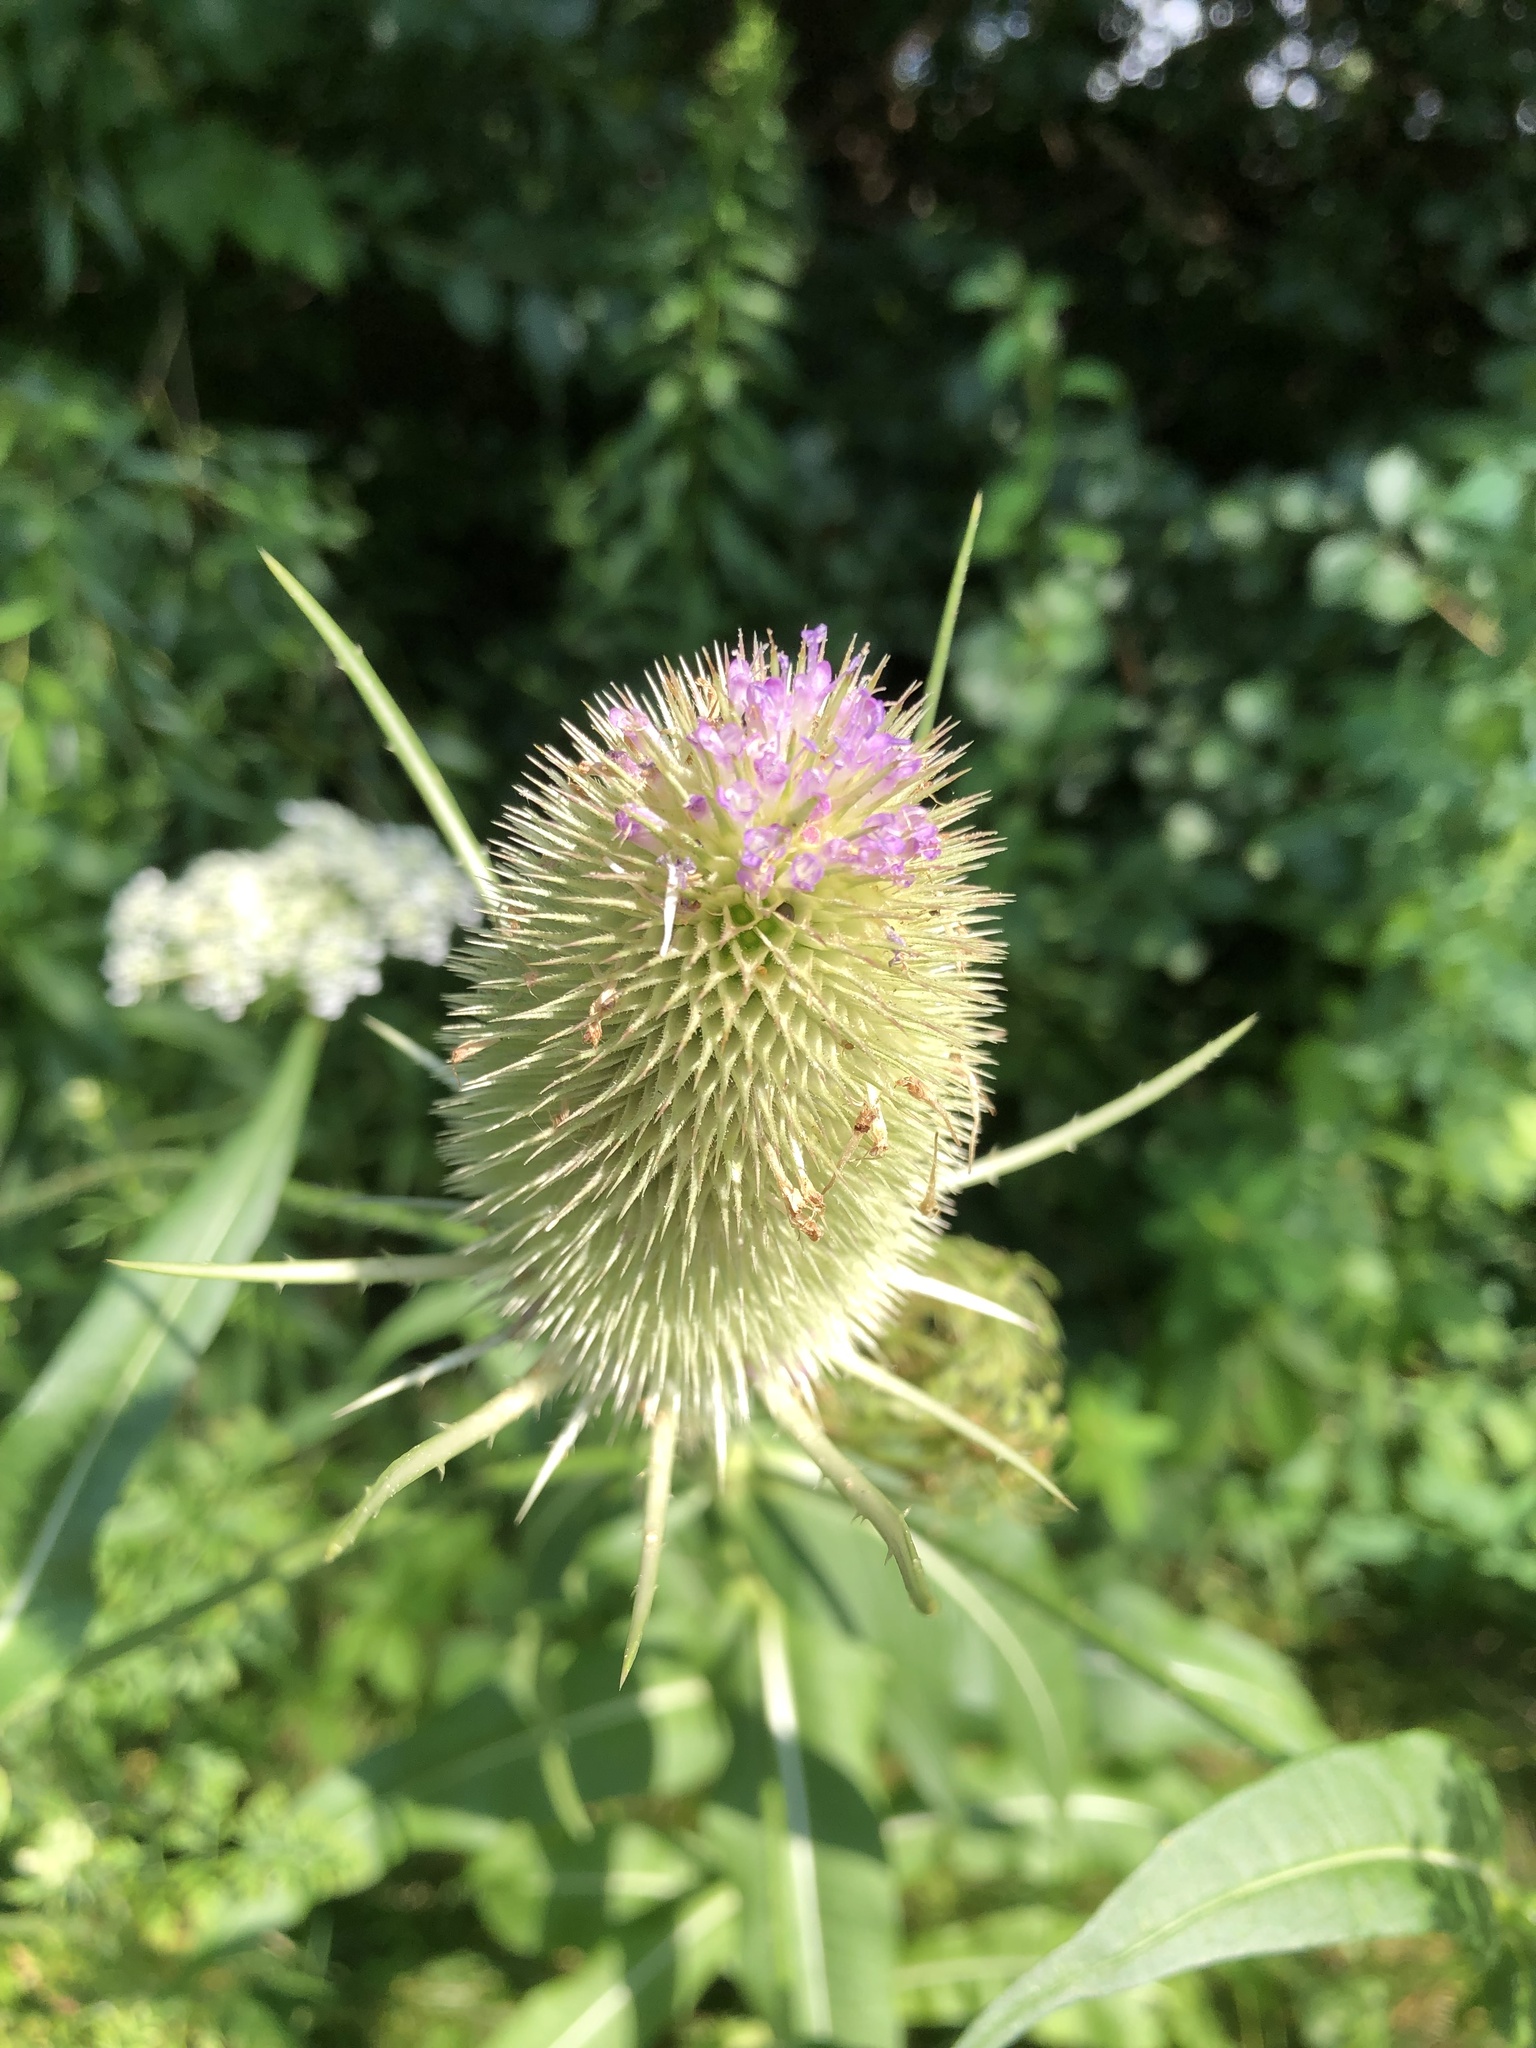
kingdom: Plantae
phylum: Tracheophyta
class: Magnoliopsida
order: Dipsacales
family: Caprifoliaceae
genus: Dipsacus
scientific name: Dipsacus fullonum
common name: Teasel
